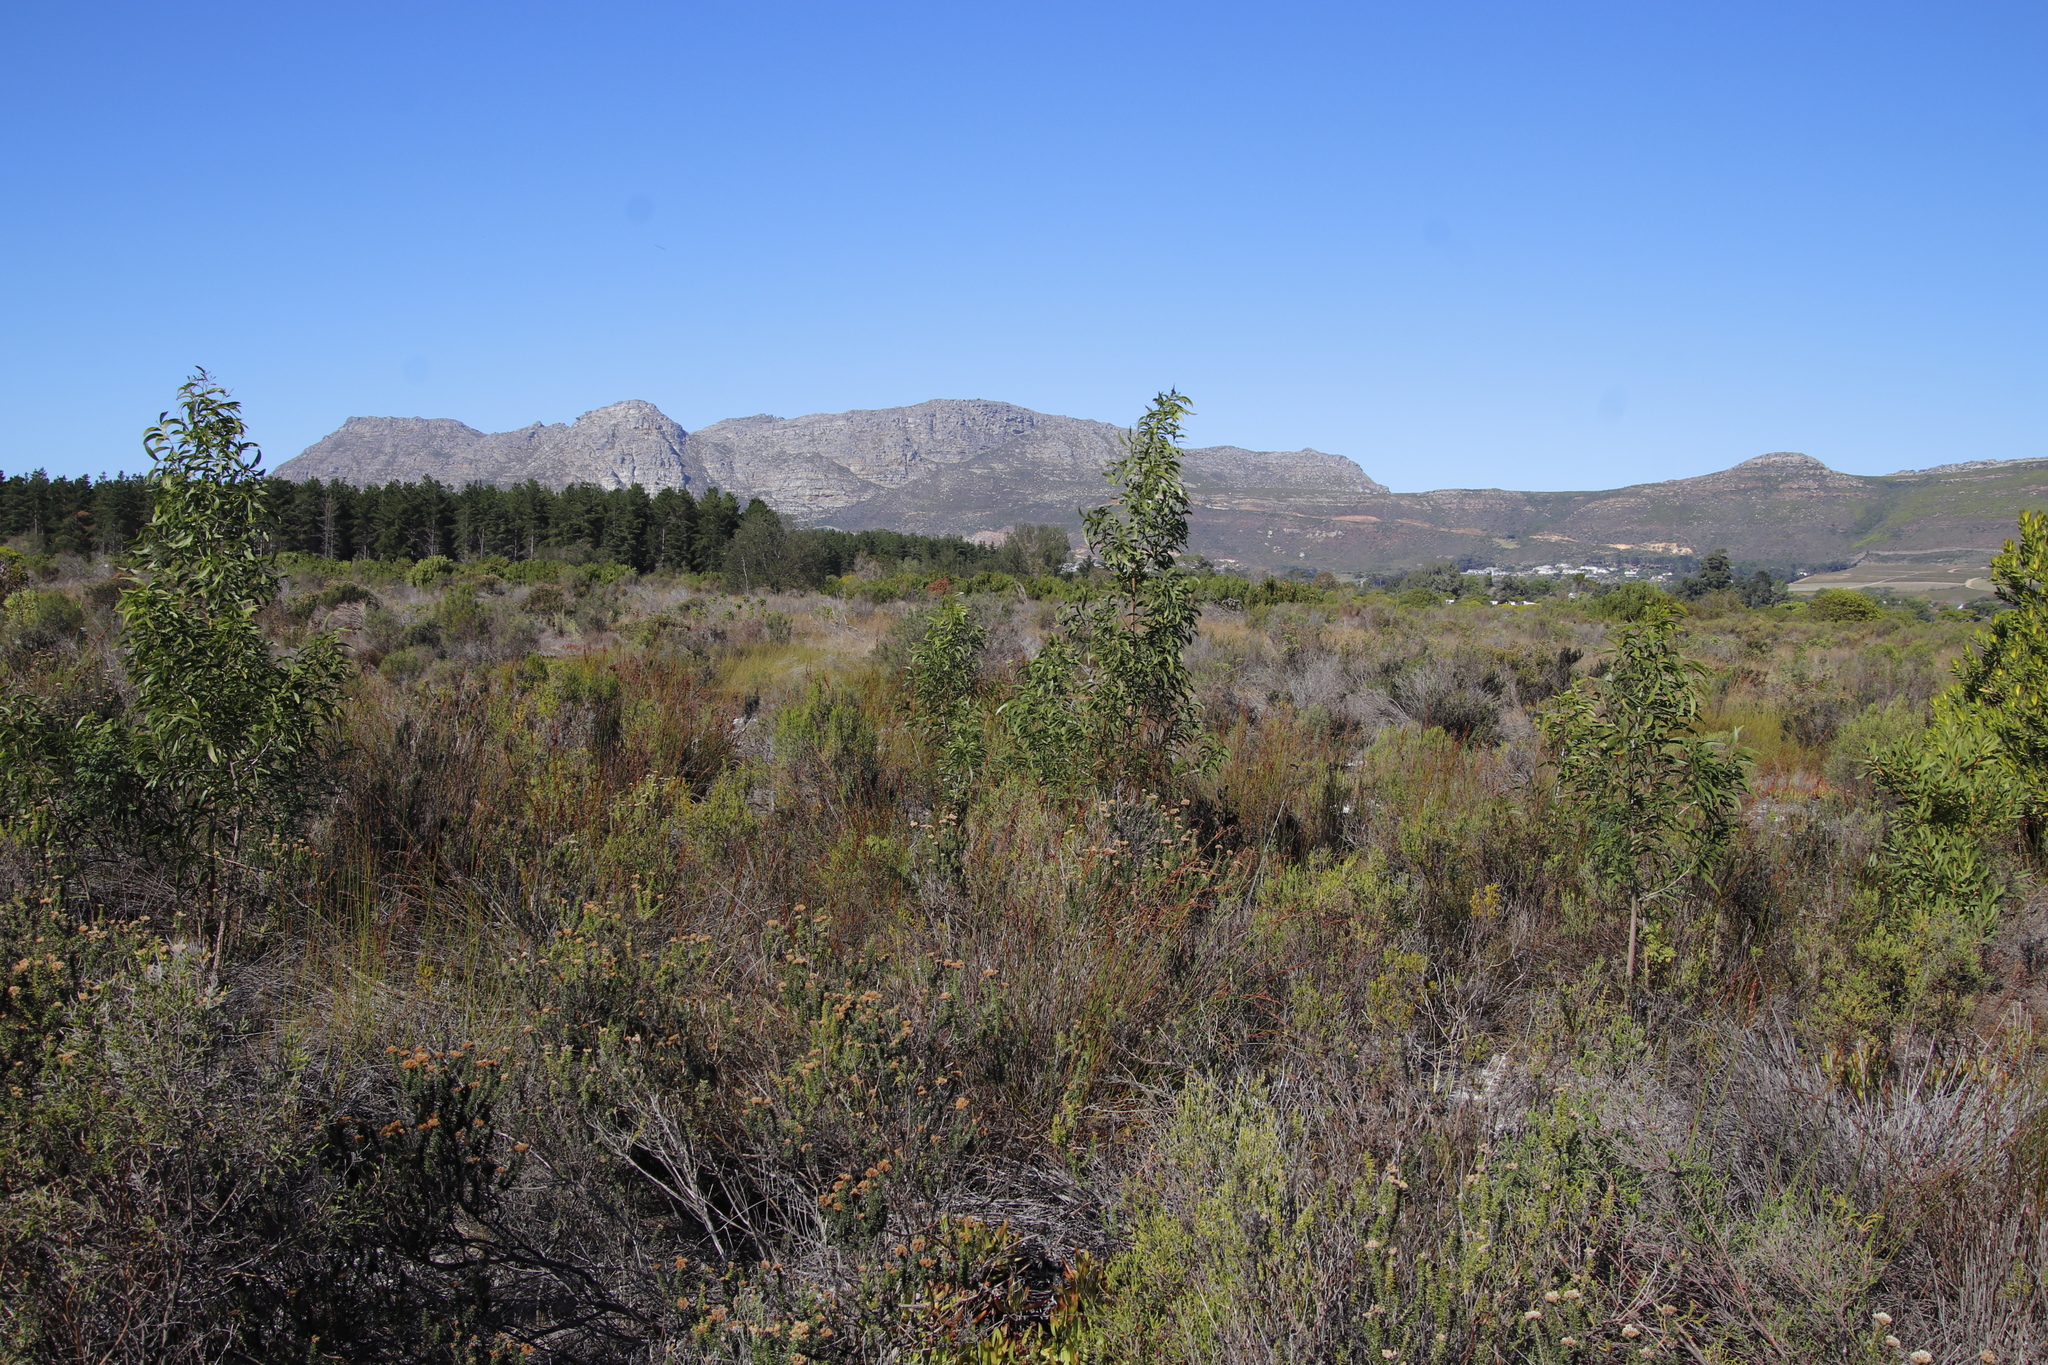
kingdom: Plantae
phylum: Tracheophyta
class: Magnoliopsida
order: Fabales
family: Fabaceae
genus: Acacia
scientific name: Acacia melanoxylon
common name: Blackwood
